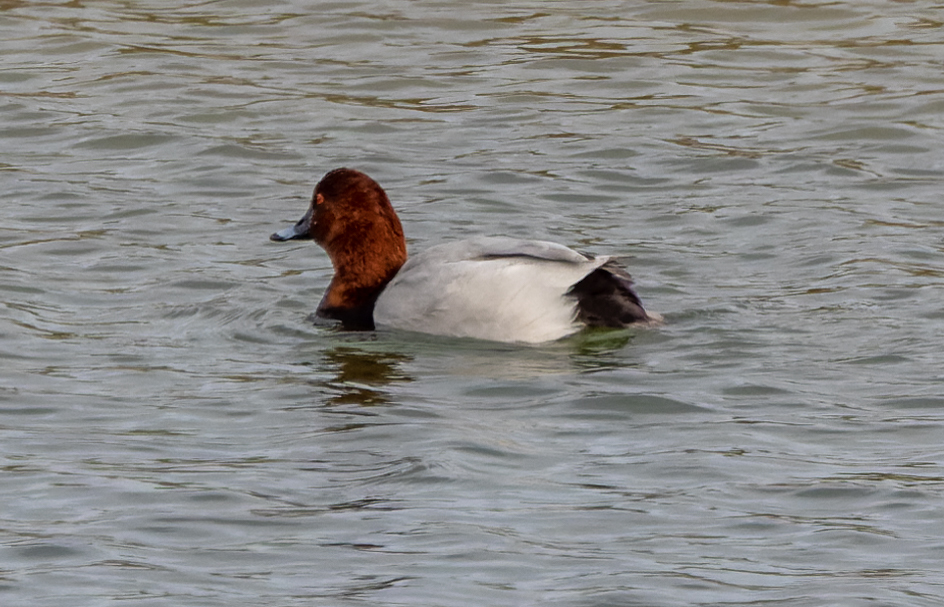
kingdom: Animalia
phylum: Chordata
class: Aves
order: Anseriformes
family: Anatidae
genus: Aythya
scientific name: Aythya ferina
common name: Common pochard
